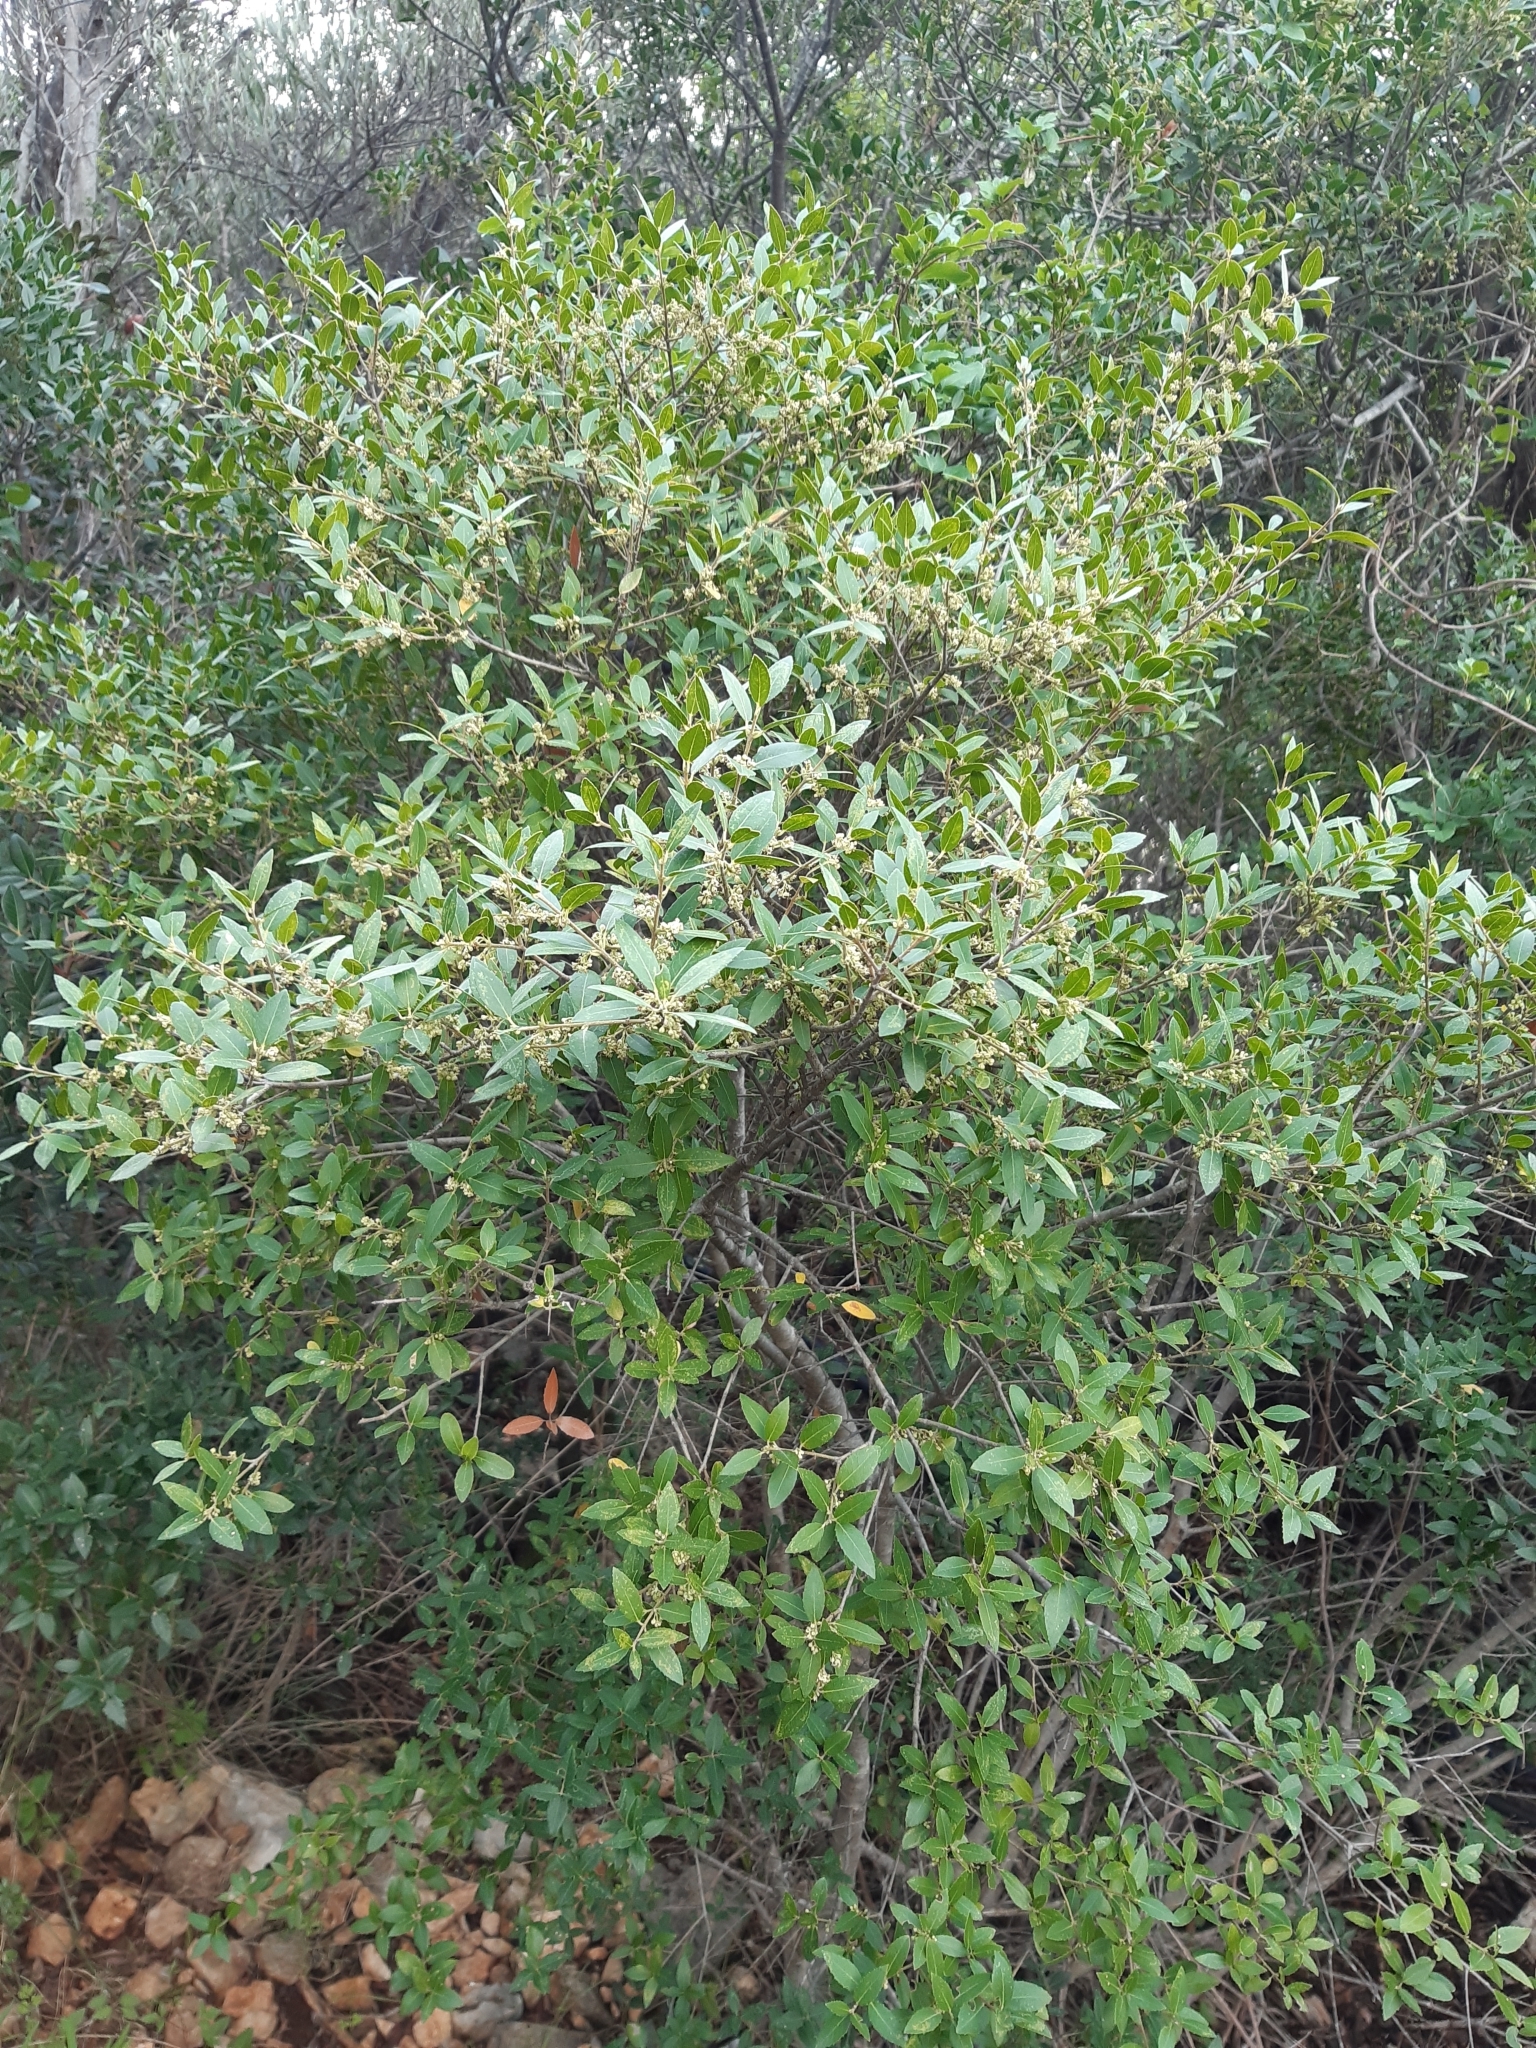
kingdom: Plantae
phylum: Tracheophyta
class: Magnoliopsida
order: Lamiales
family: Oleaceae
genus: Phillyrea
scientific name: Phillyrea latifolia
